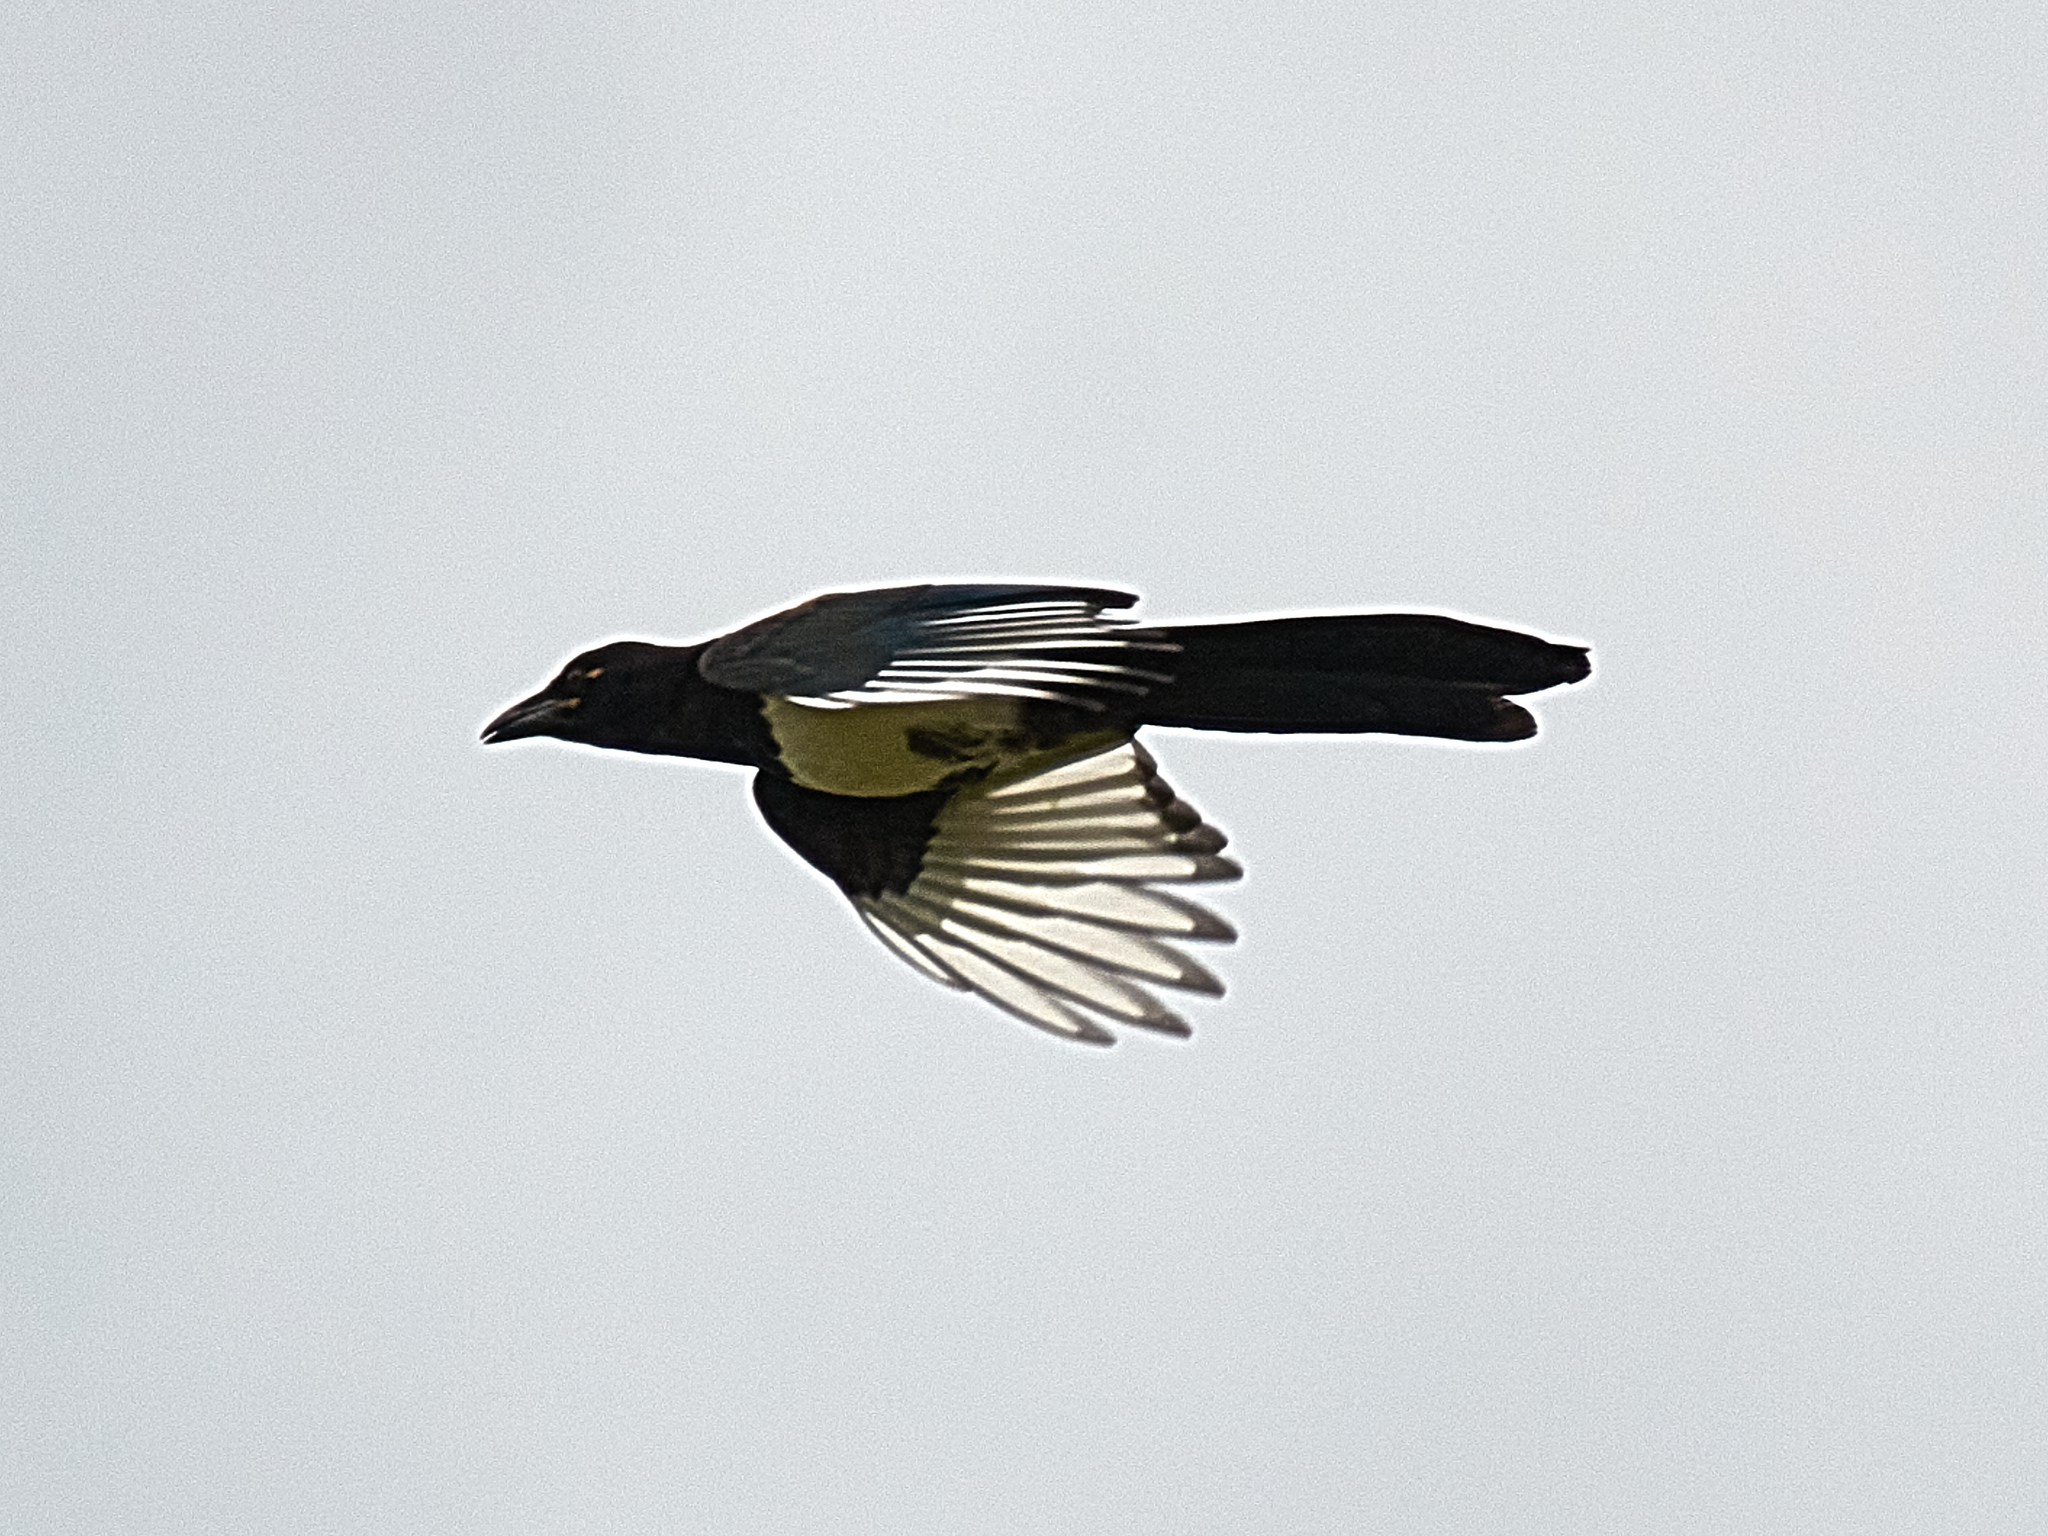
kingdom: Animalia
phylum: Chordata
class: Aves
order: Passeriformes
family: Corvidae
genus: Pica
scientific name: Pica pica
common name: Eurasian magpie
